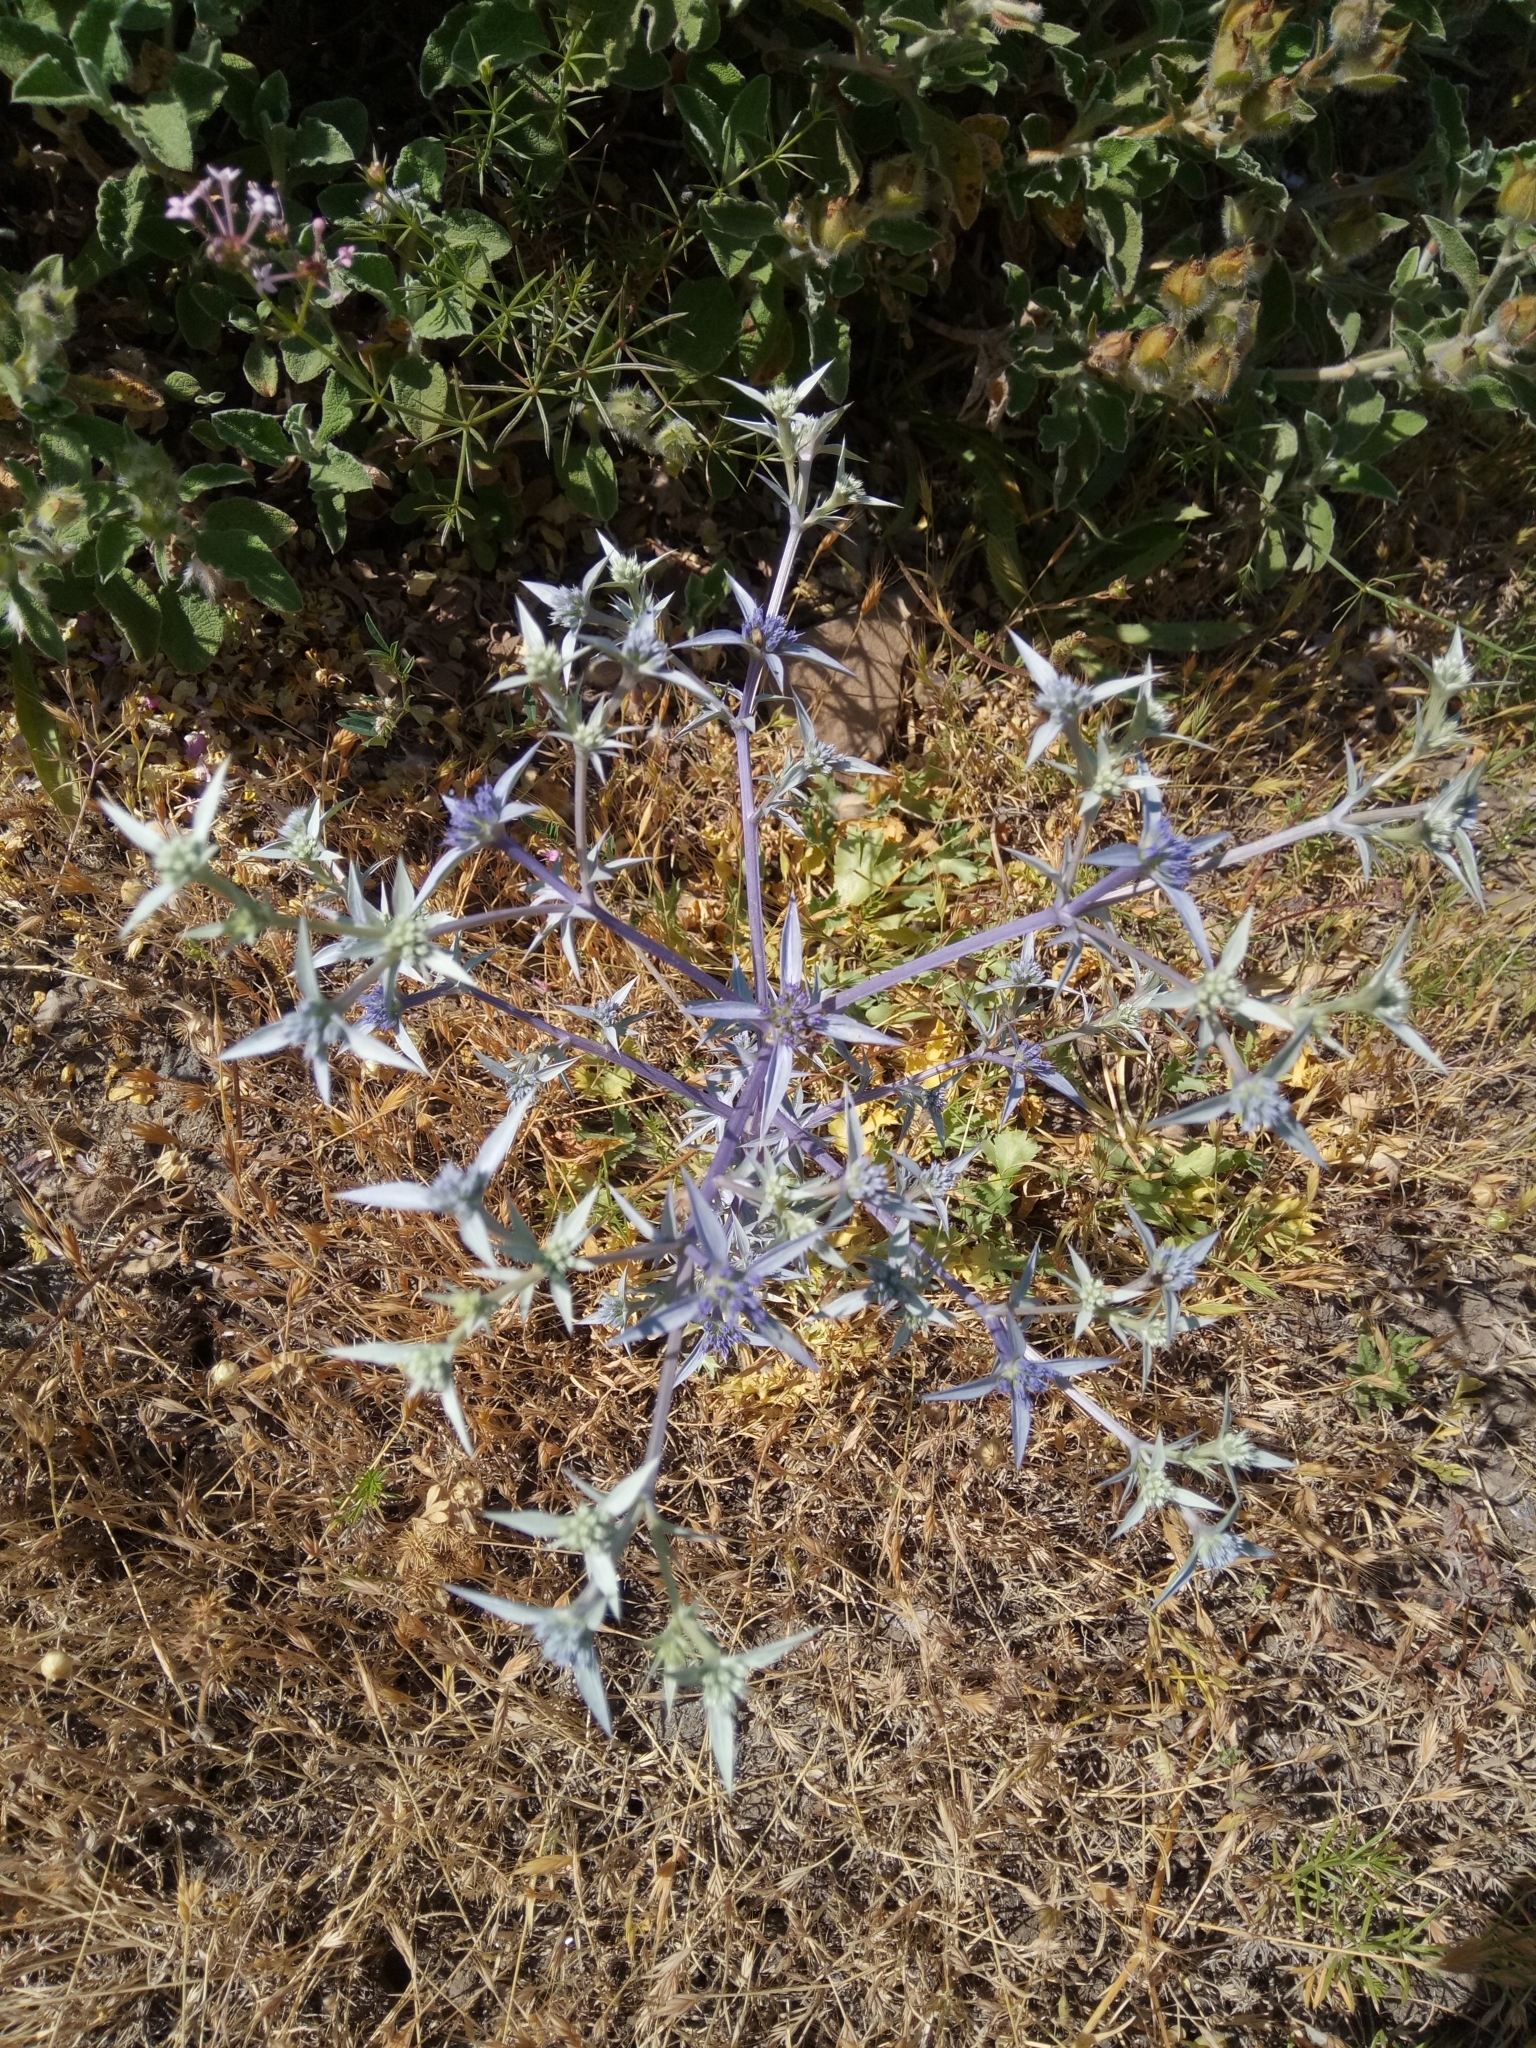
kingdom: Plantae
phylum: Tracheophyta
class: Magnoliopsida
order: Apiales
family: Apiaceae
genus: Eryngium
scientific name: Eryngium triquetrum
